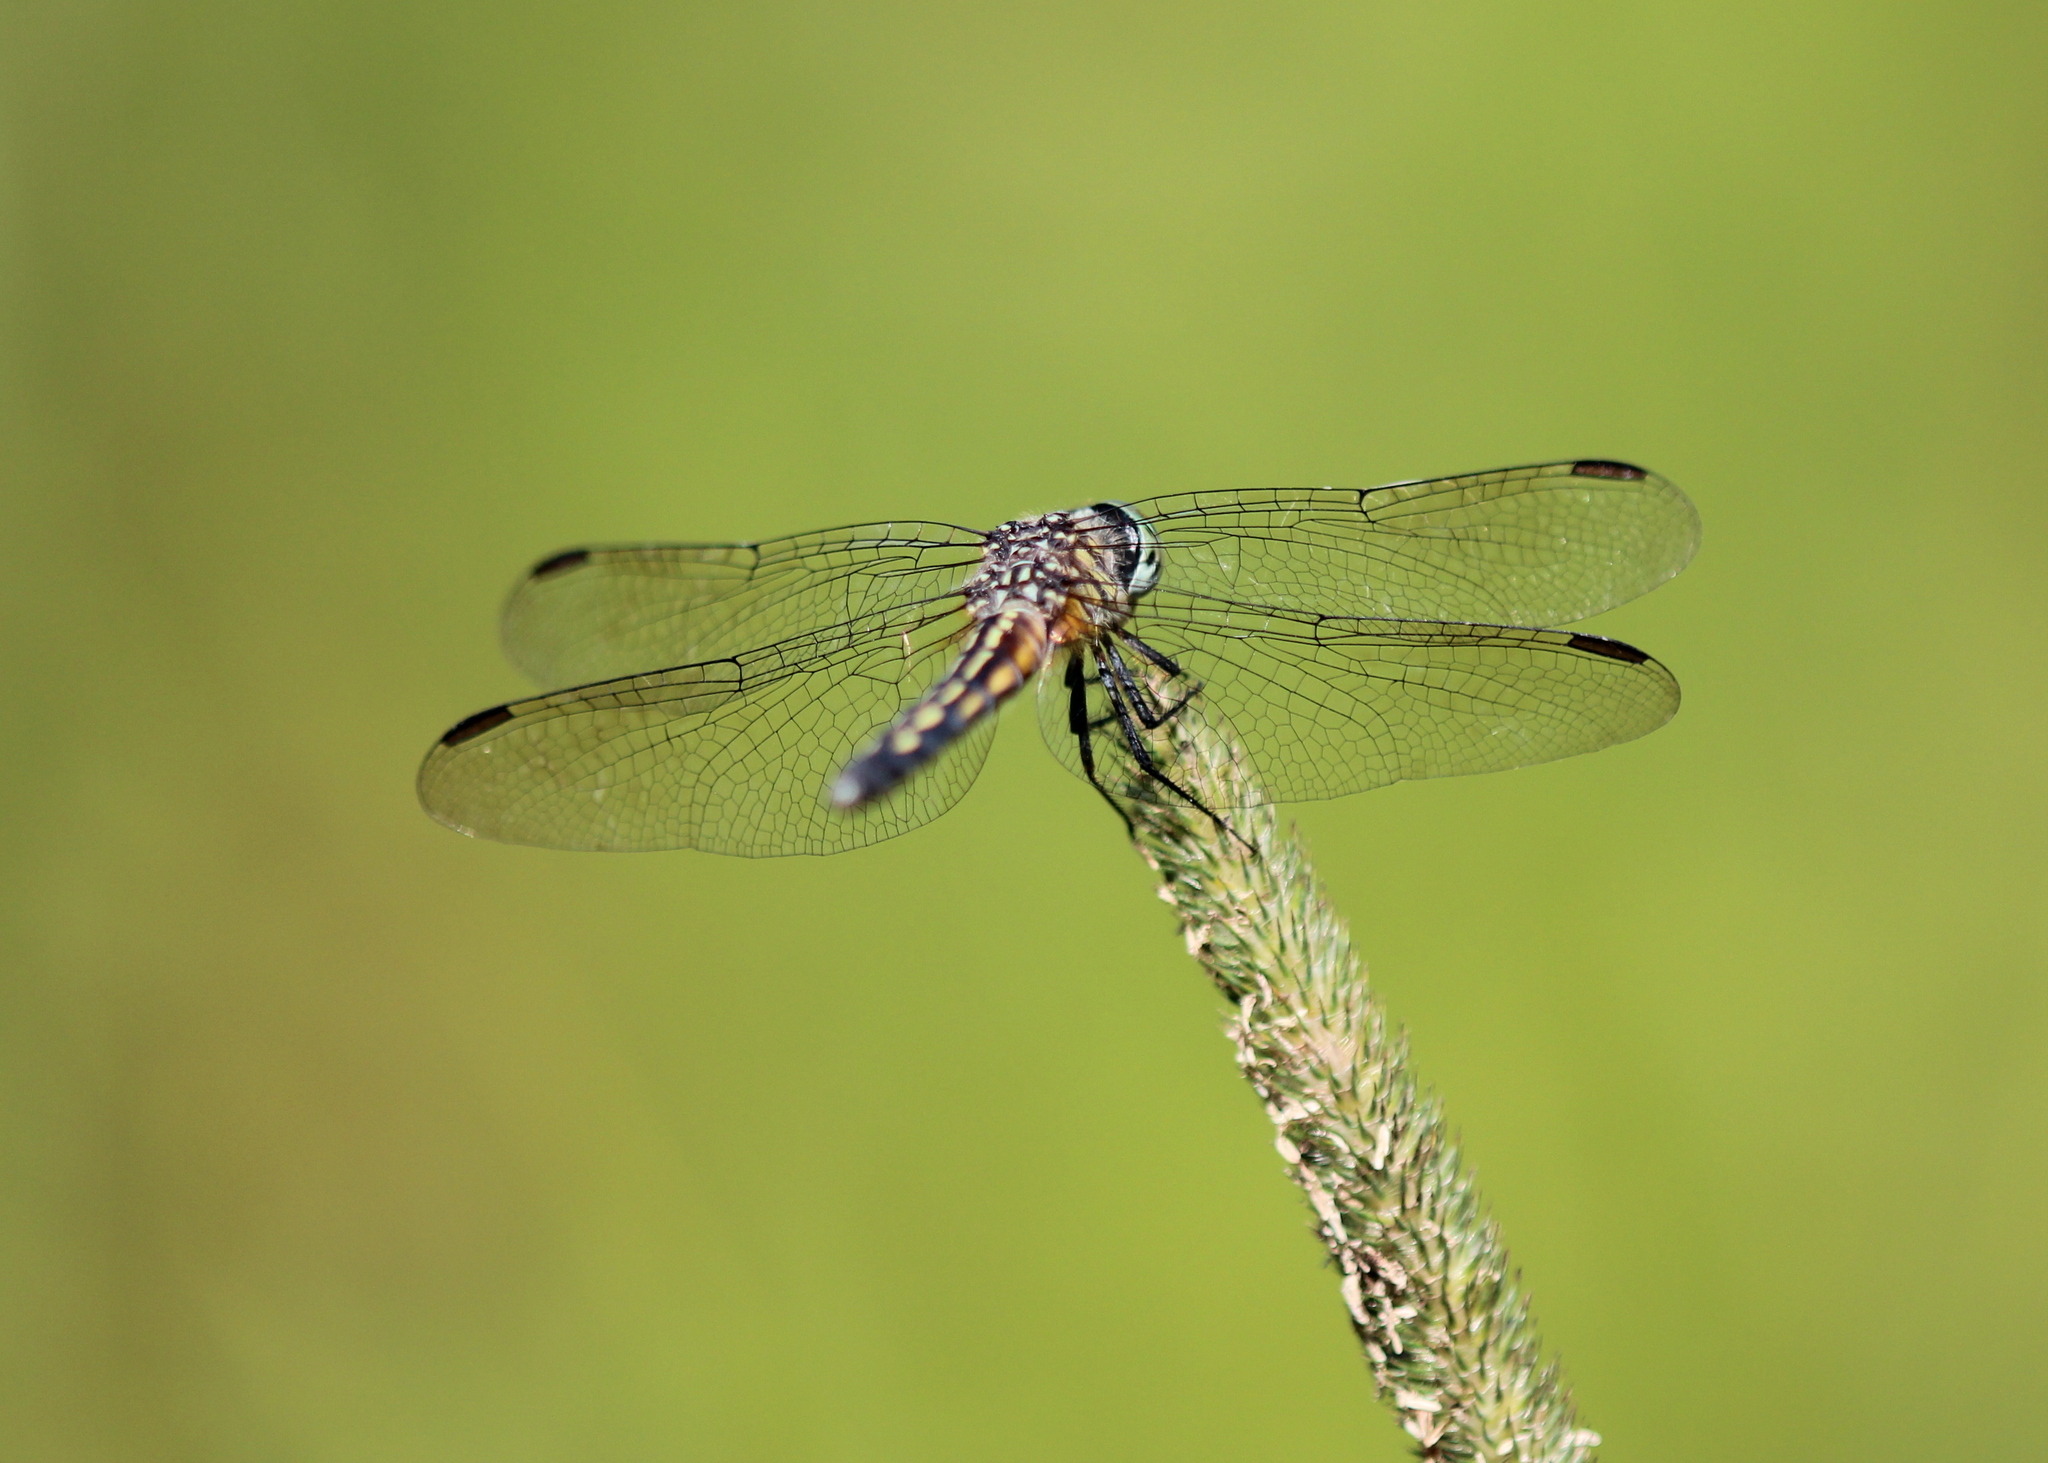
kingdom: Animalia
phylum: Arthropoda
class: Insecta
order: Odonata
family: Libellulidae
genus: Pachydiplax
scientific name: Pachydiplax longipennis
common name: Blue dasher
